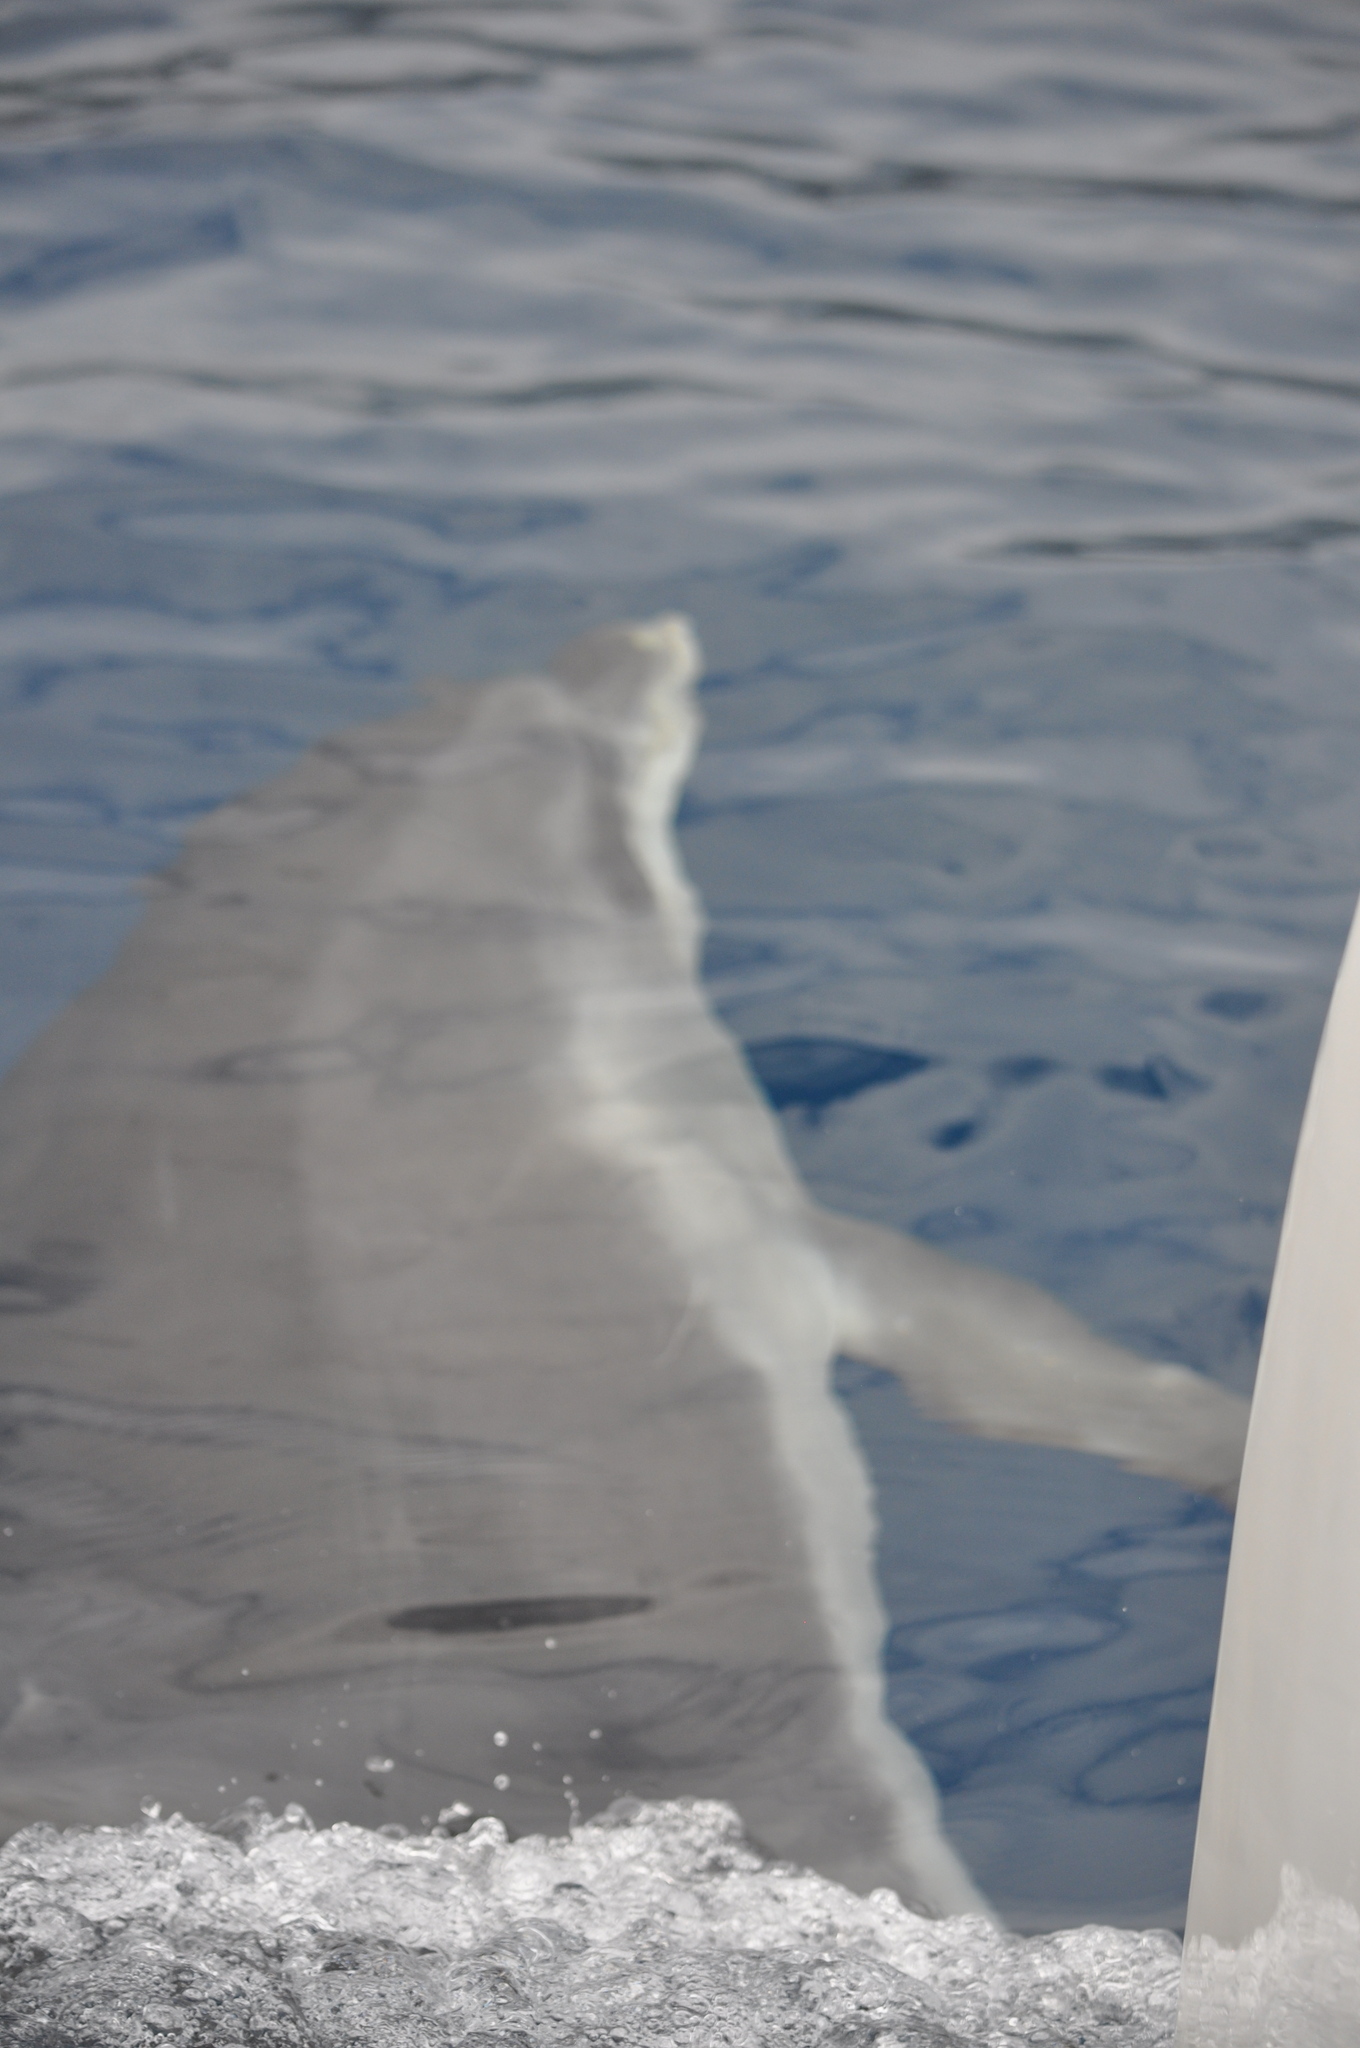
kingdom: Animalia
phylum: Chordata
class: Mammalia
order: Cetacea
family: Delphinidae
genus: Tursiops
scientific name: Tursiops truncatus
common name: Bottlenose dolphin
